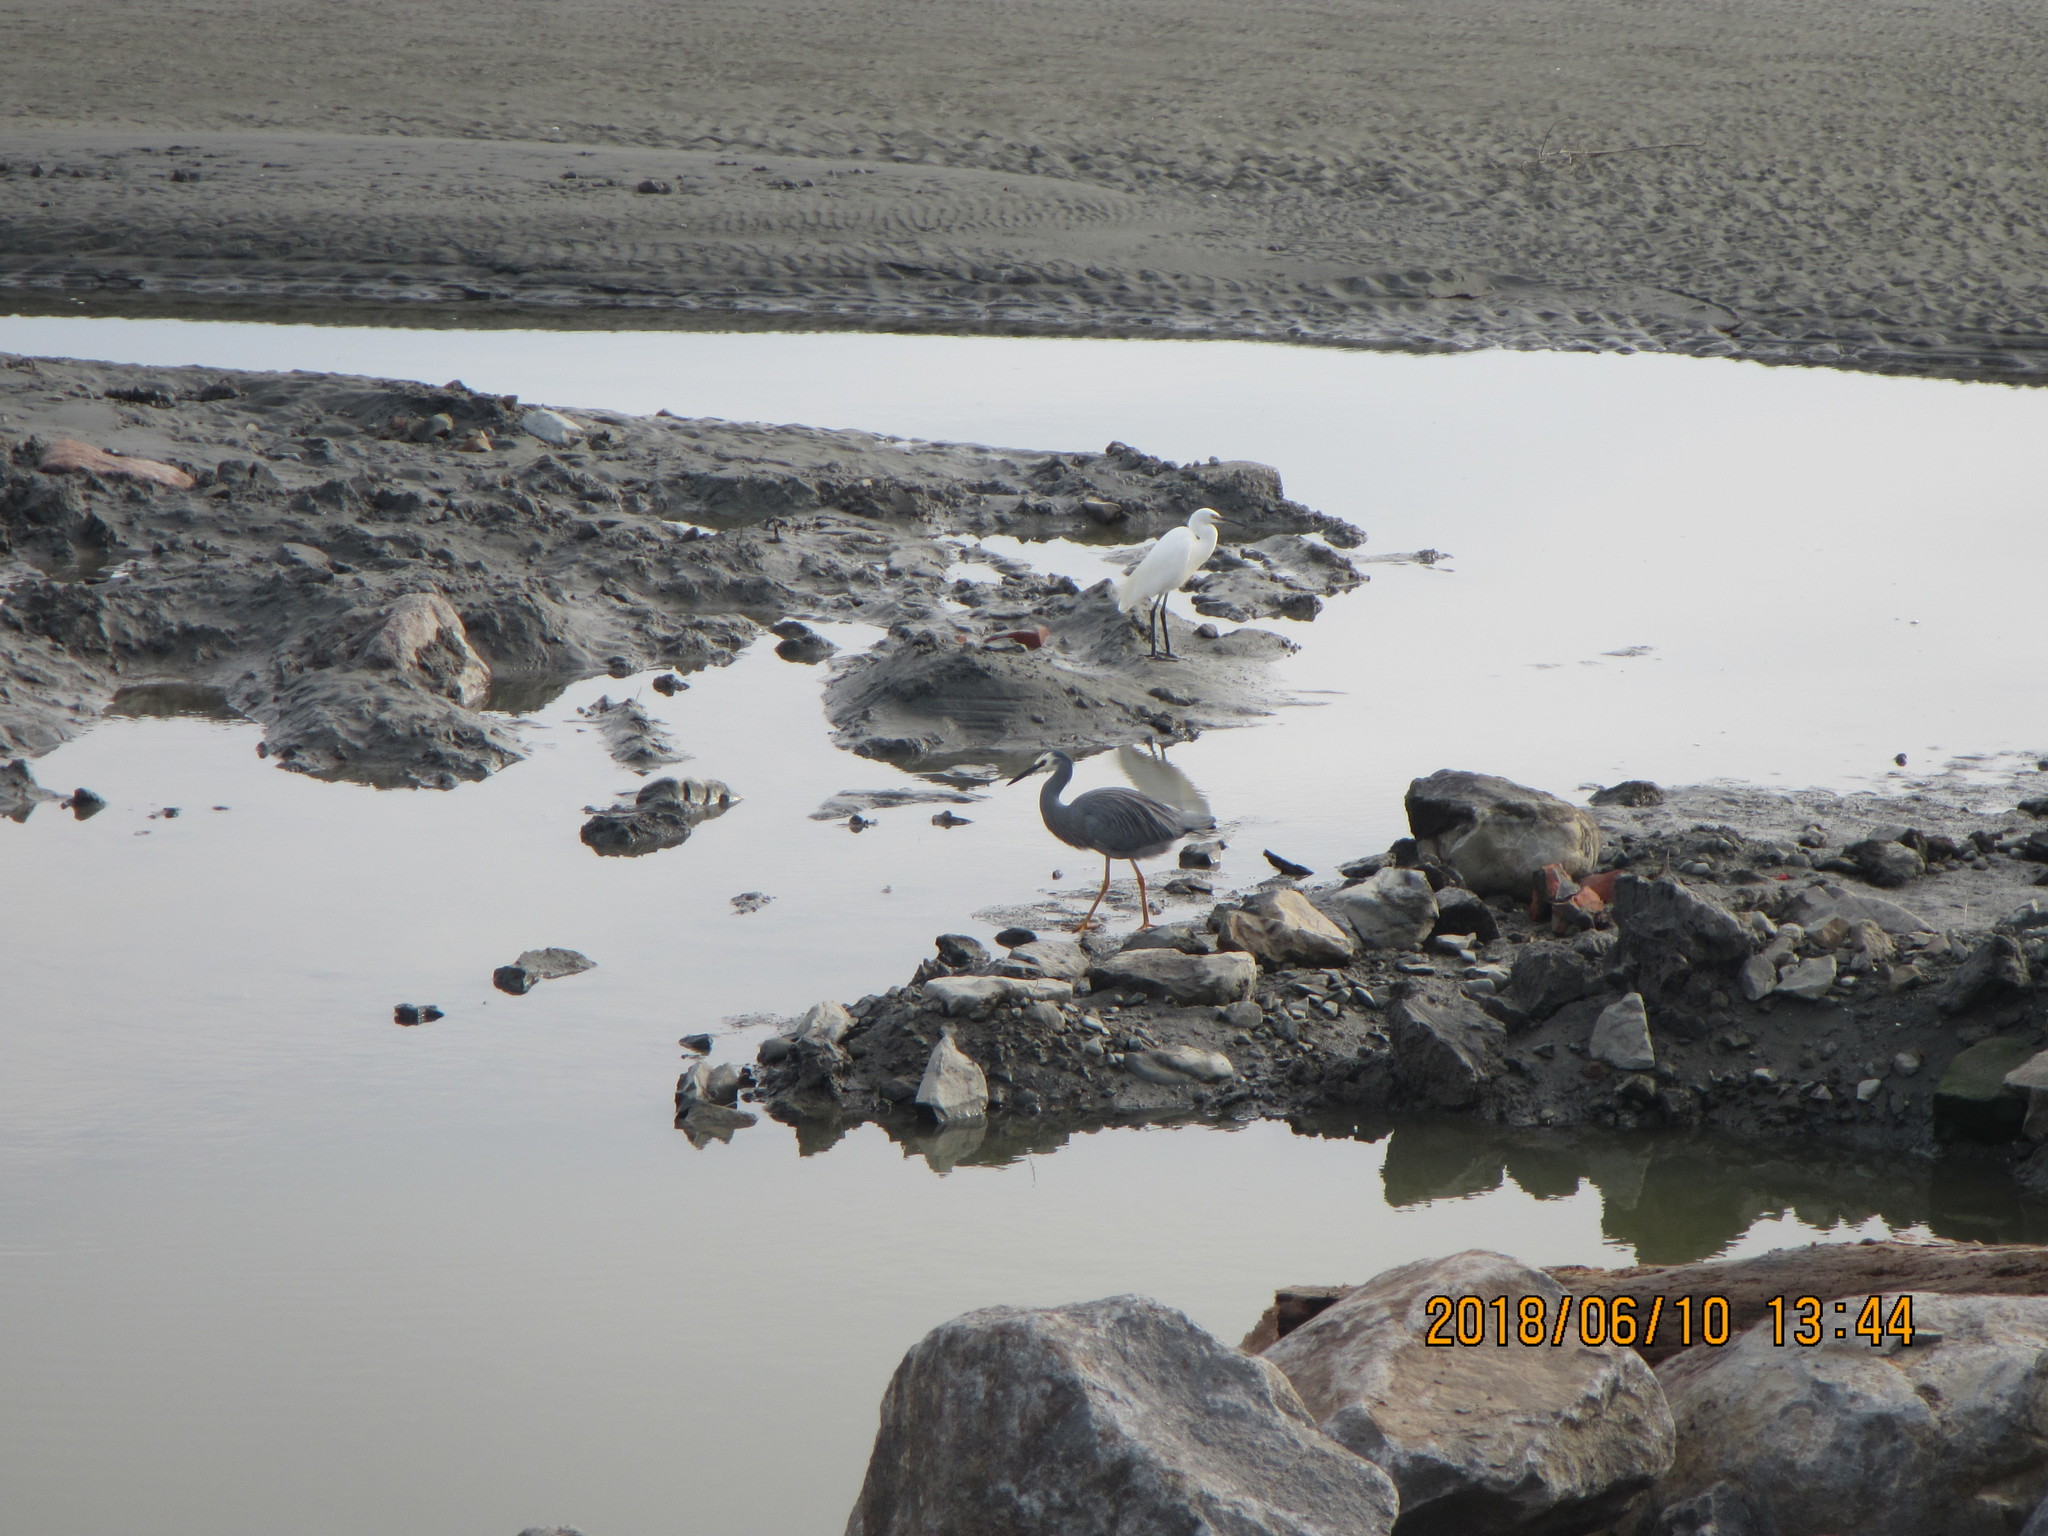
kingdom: Animalia
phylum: Chordata
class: Aves
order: Pelecaniformes
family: Ardeidae
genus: Egretta
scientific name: Egretta novaehollandiae
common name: White-faced heron
